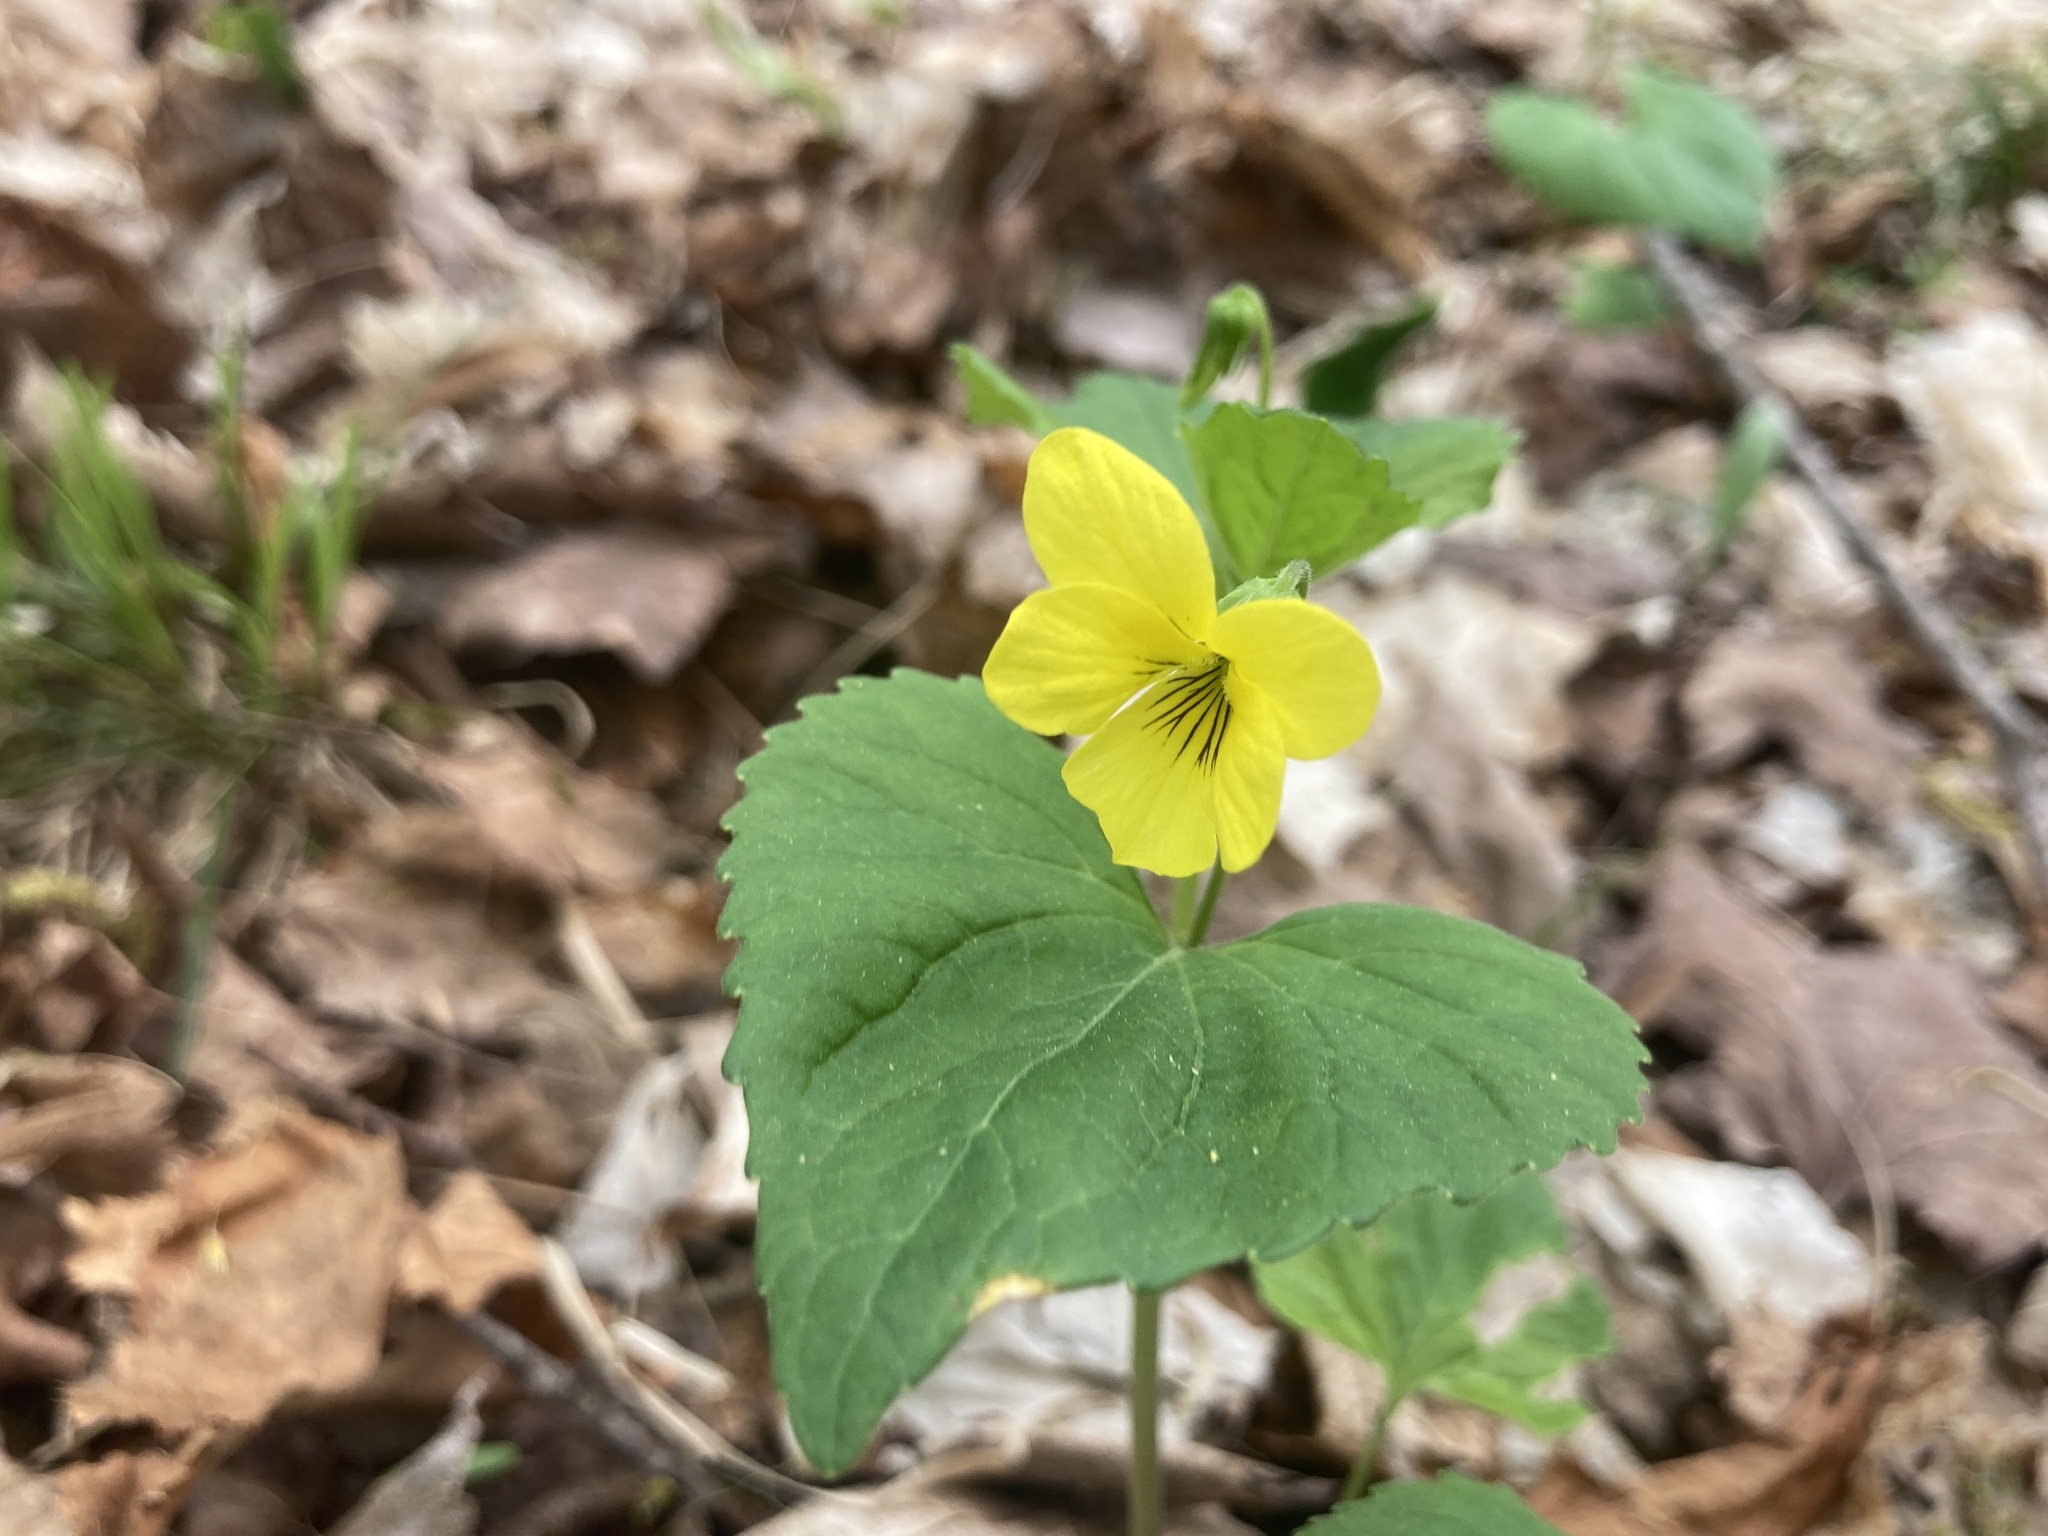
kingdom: Plantae
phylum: Tracheophyta
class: Magnoliopsida
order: Malpighiales
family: Violaceae
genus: Viola
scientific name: Viola eriocarpa
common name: Smooth yellow violet
